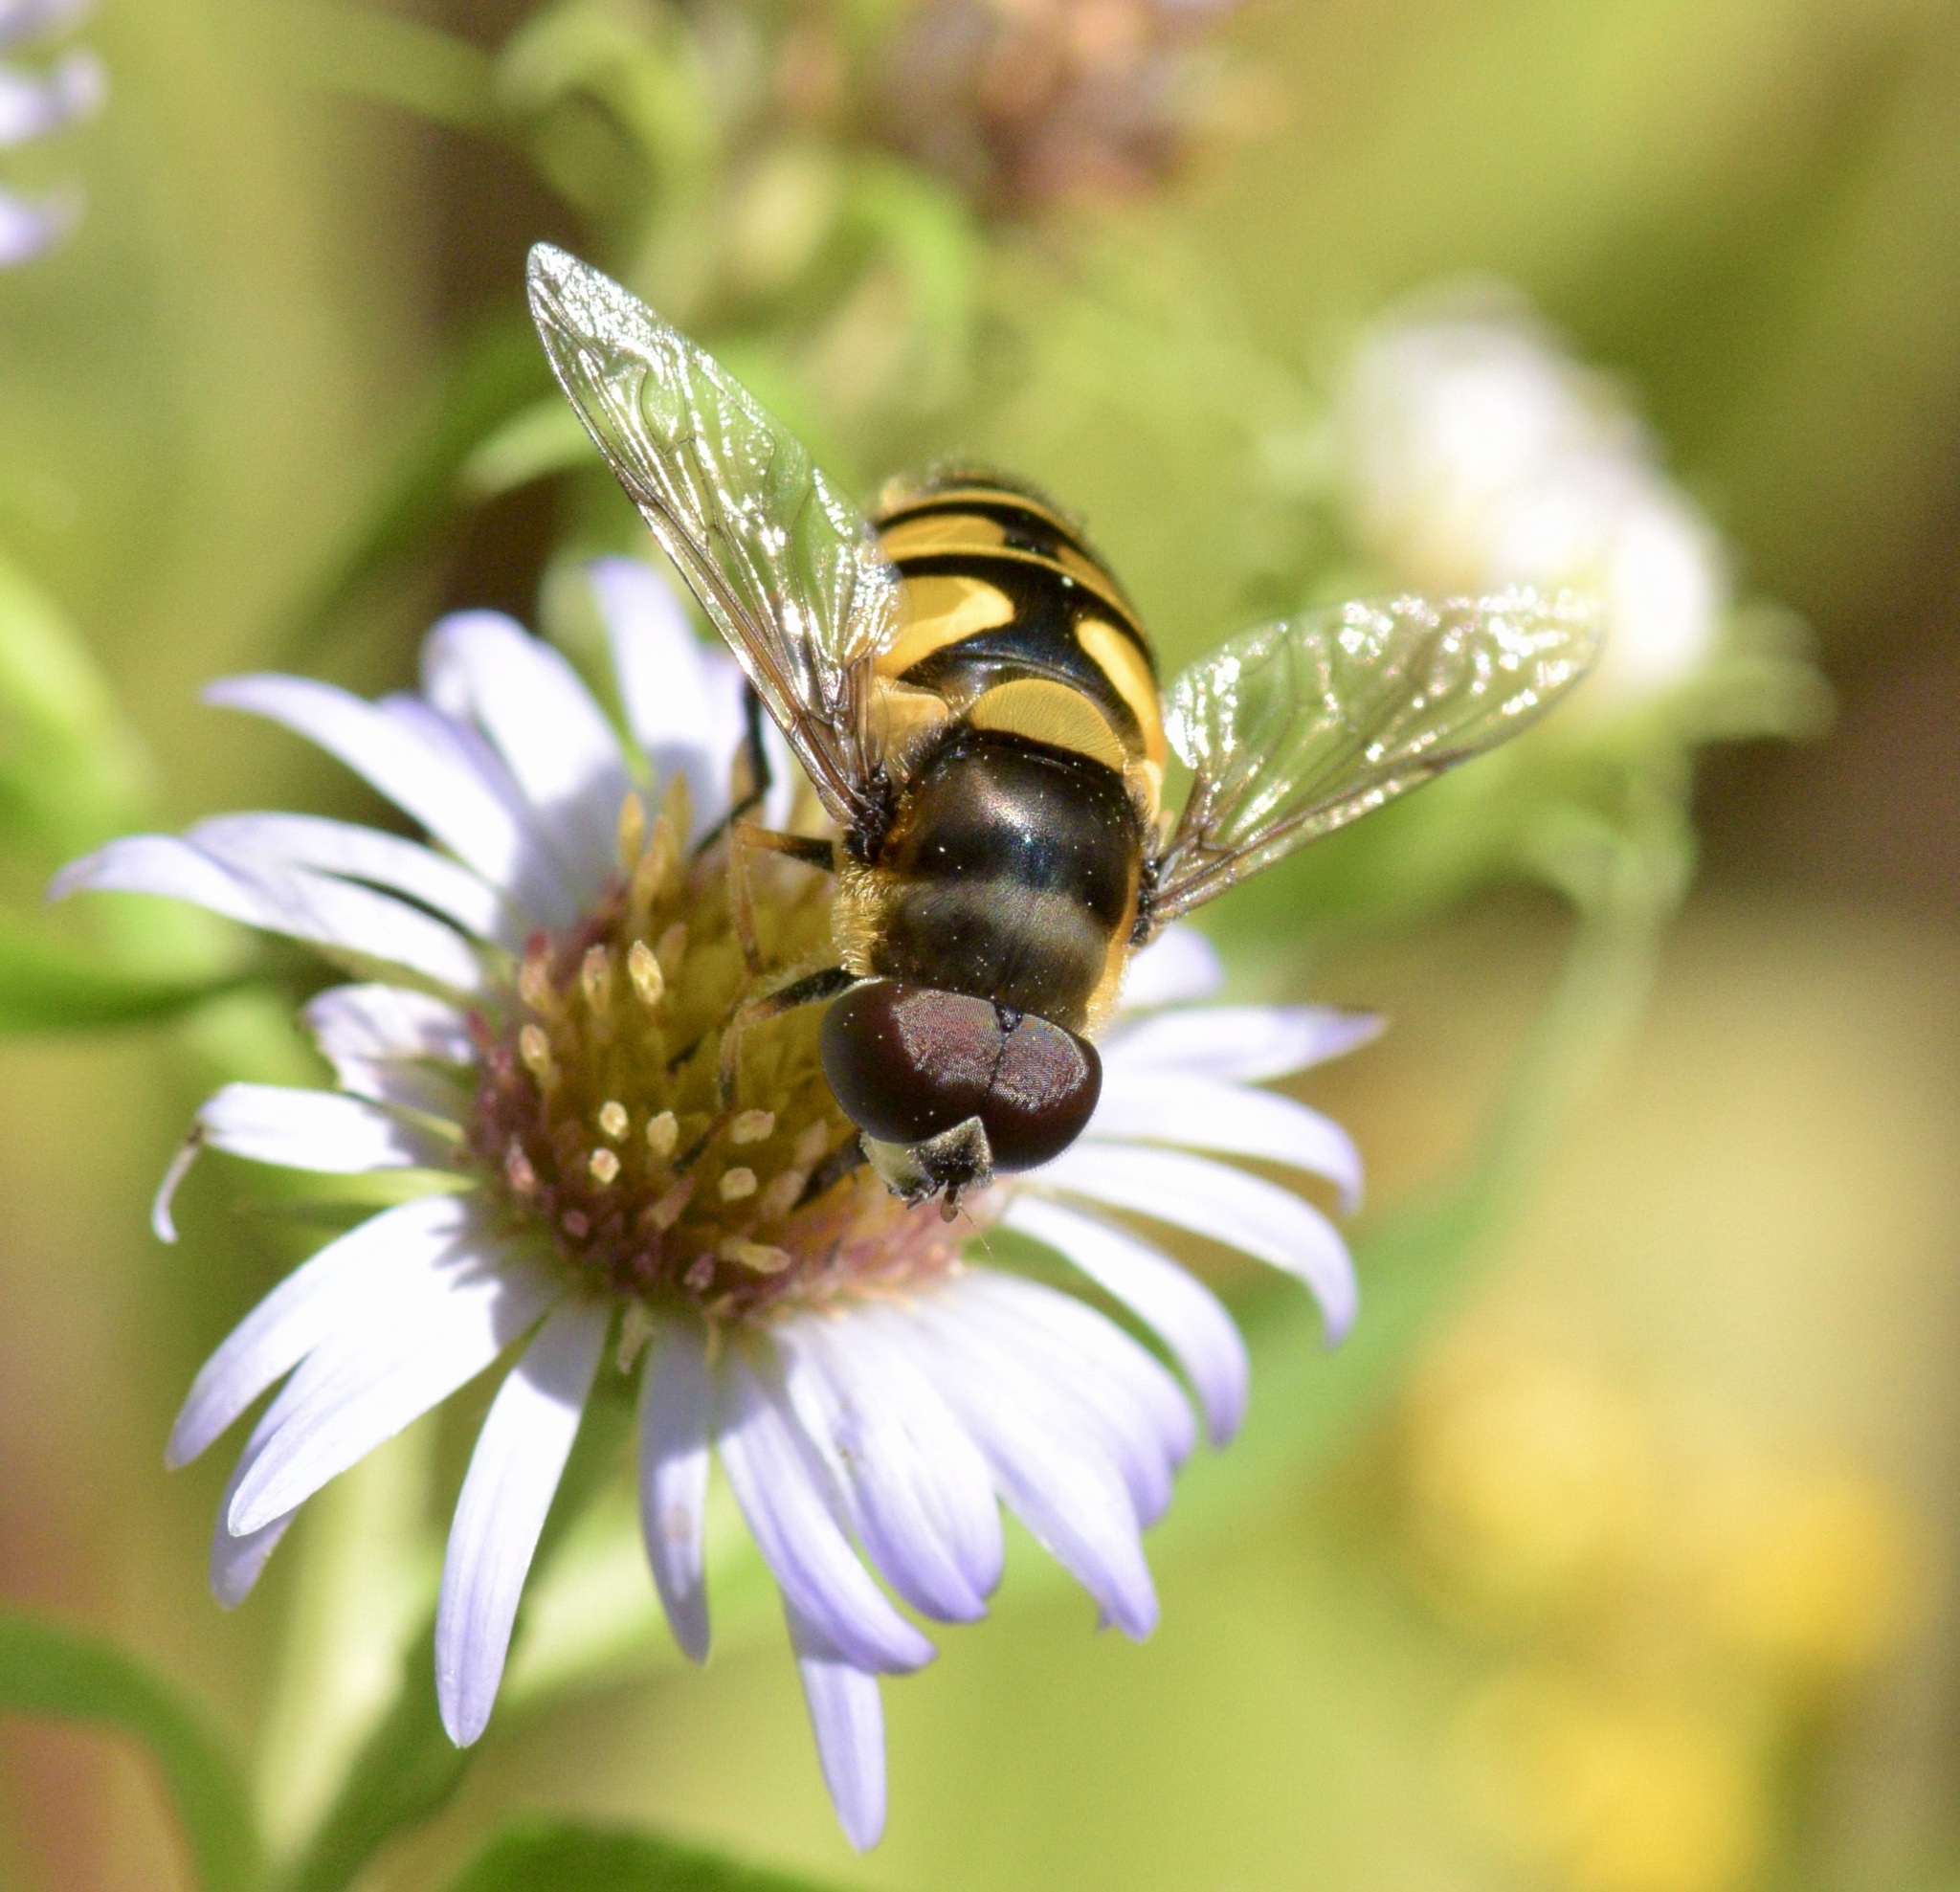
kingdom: Animalia
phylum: Arthropoda
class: Insecta
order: Diptera
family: Syrphidae
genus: Eristalis
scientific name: Eristalis transversa
